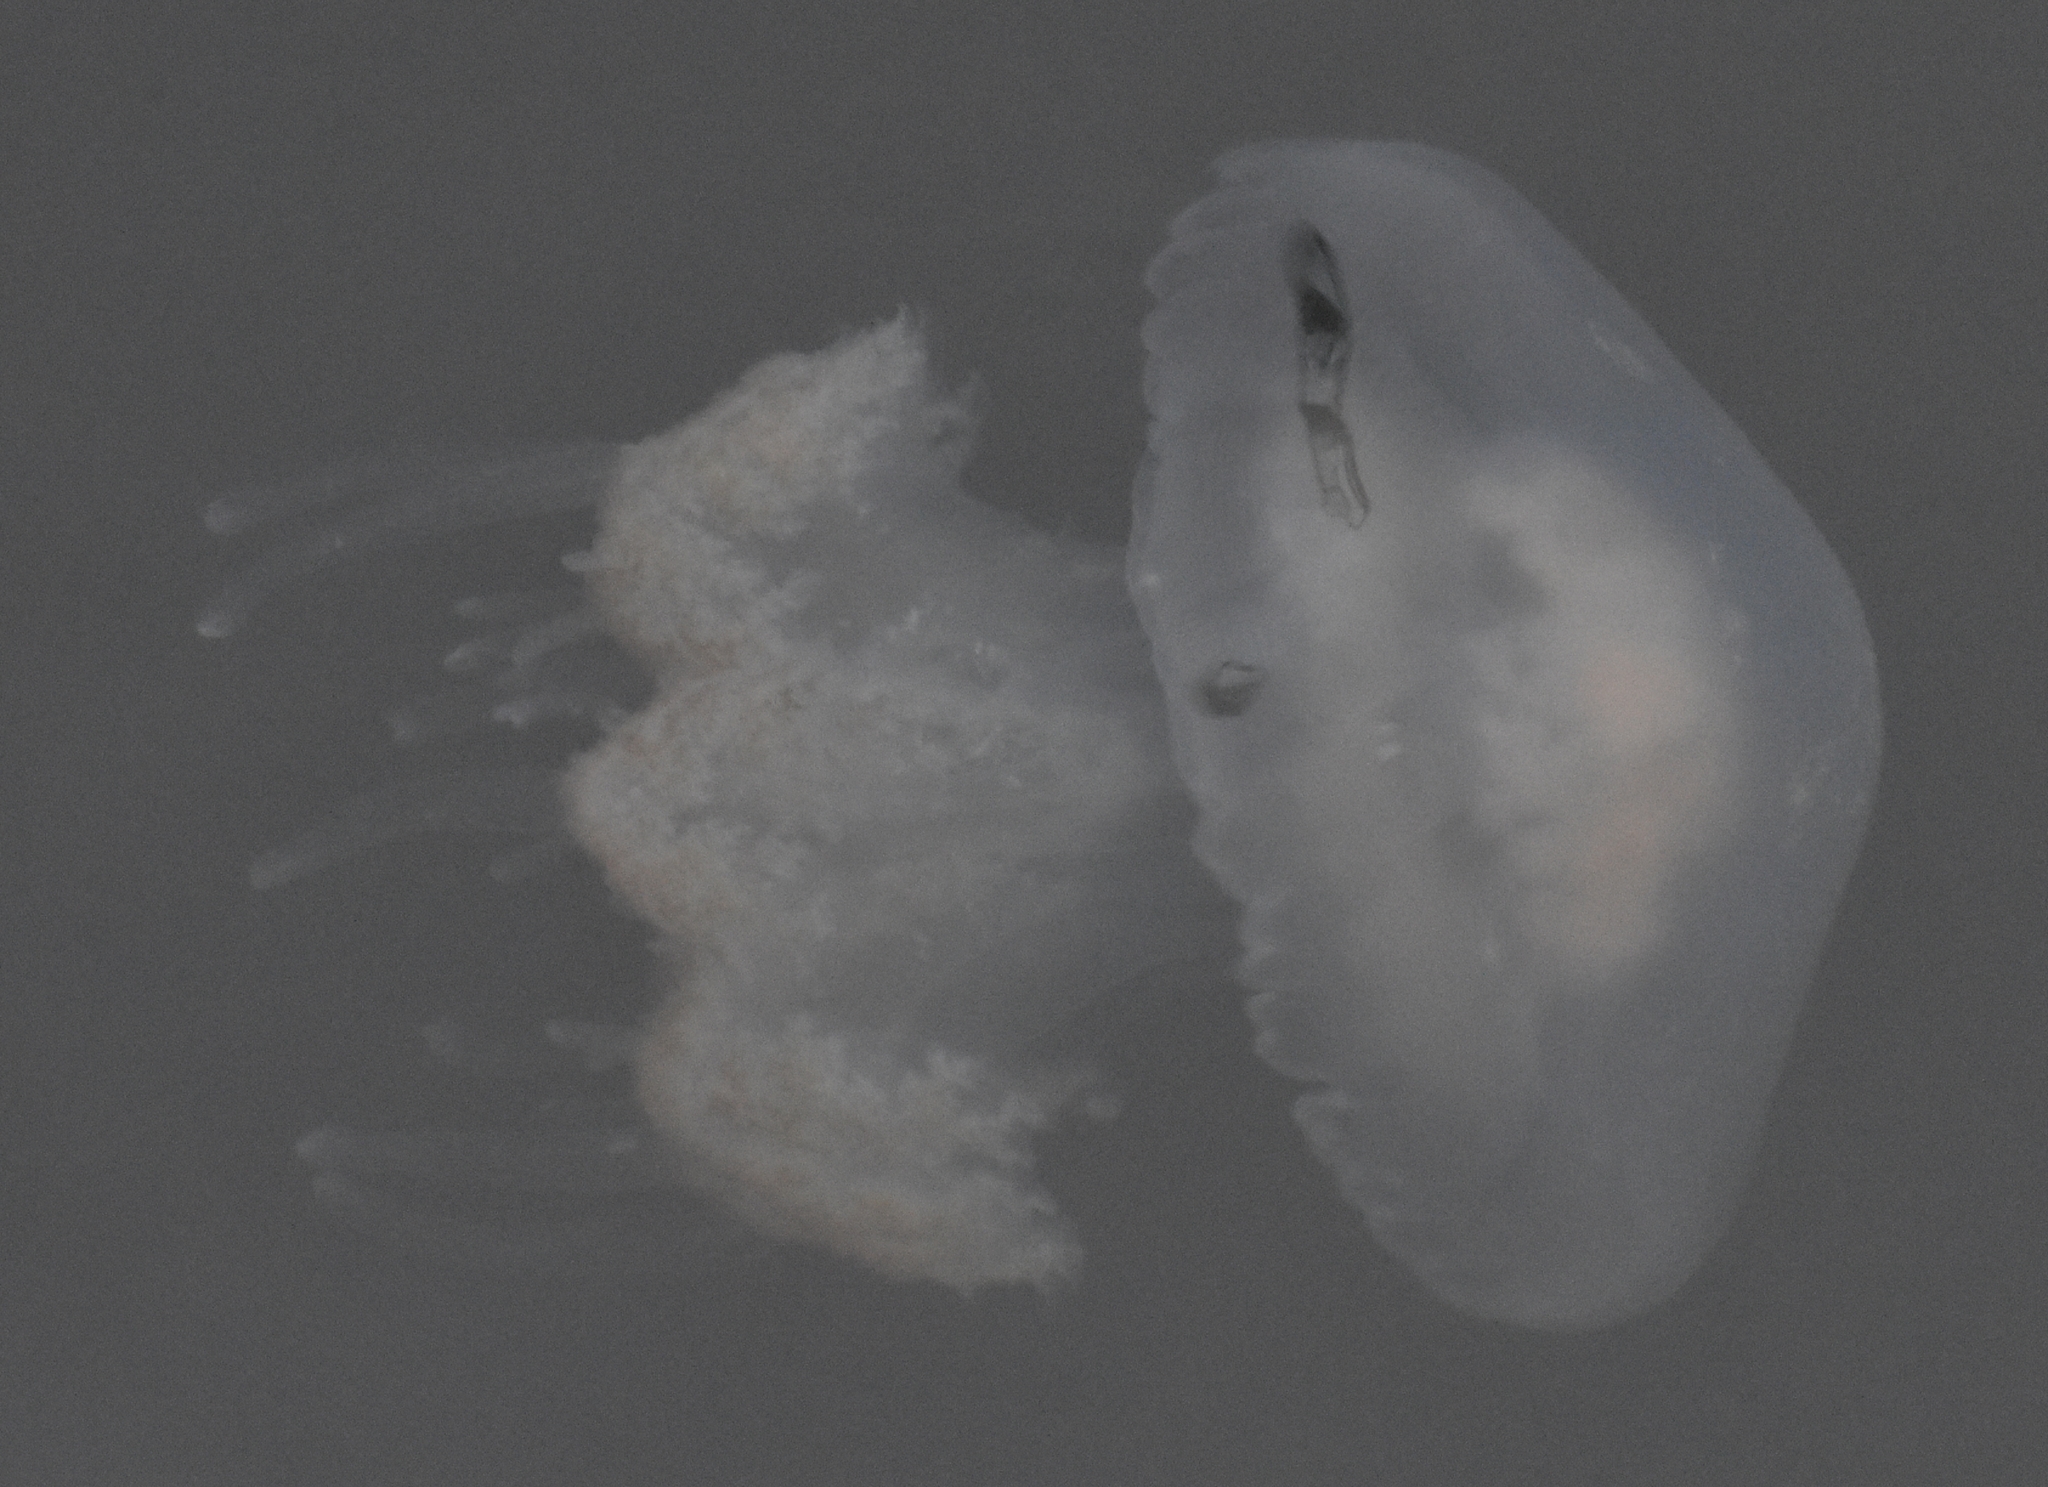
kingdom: Animalia
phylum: Cnidaria
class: Scyphozoa
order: Rhizostomeae
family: Rhizostomatidae
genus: Rhopilema
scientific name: Rhopilema verrilli
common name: Mushroom cap jellyfish
